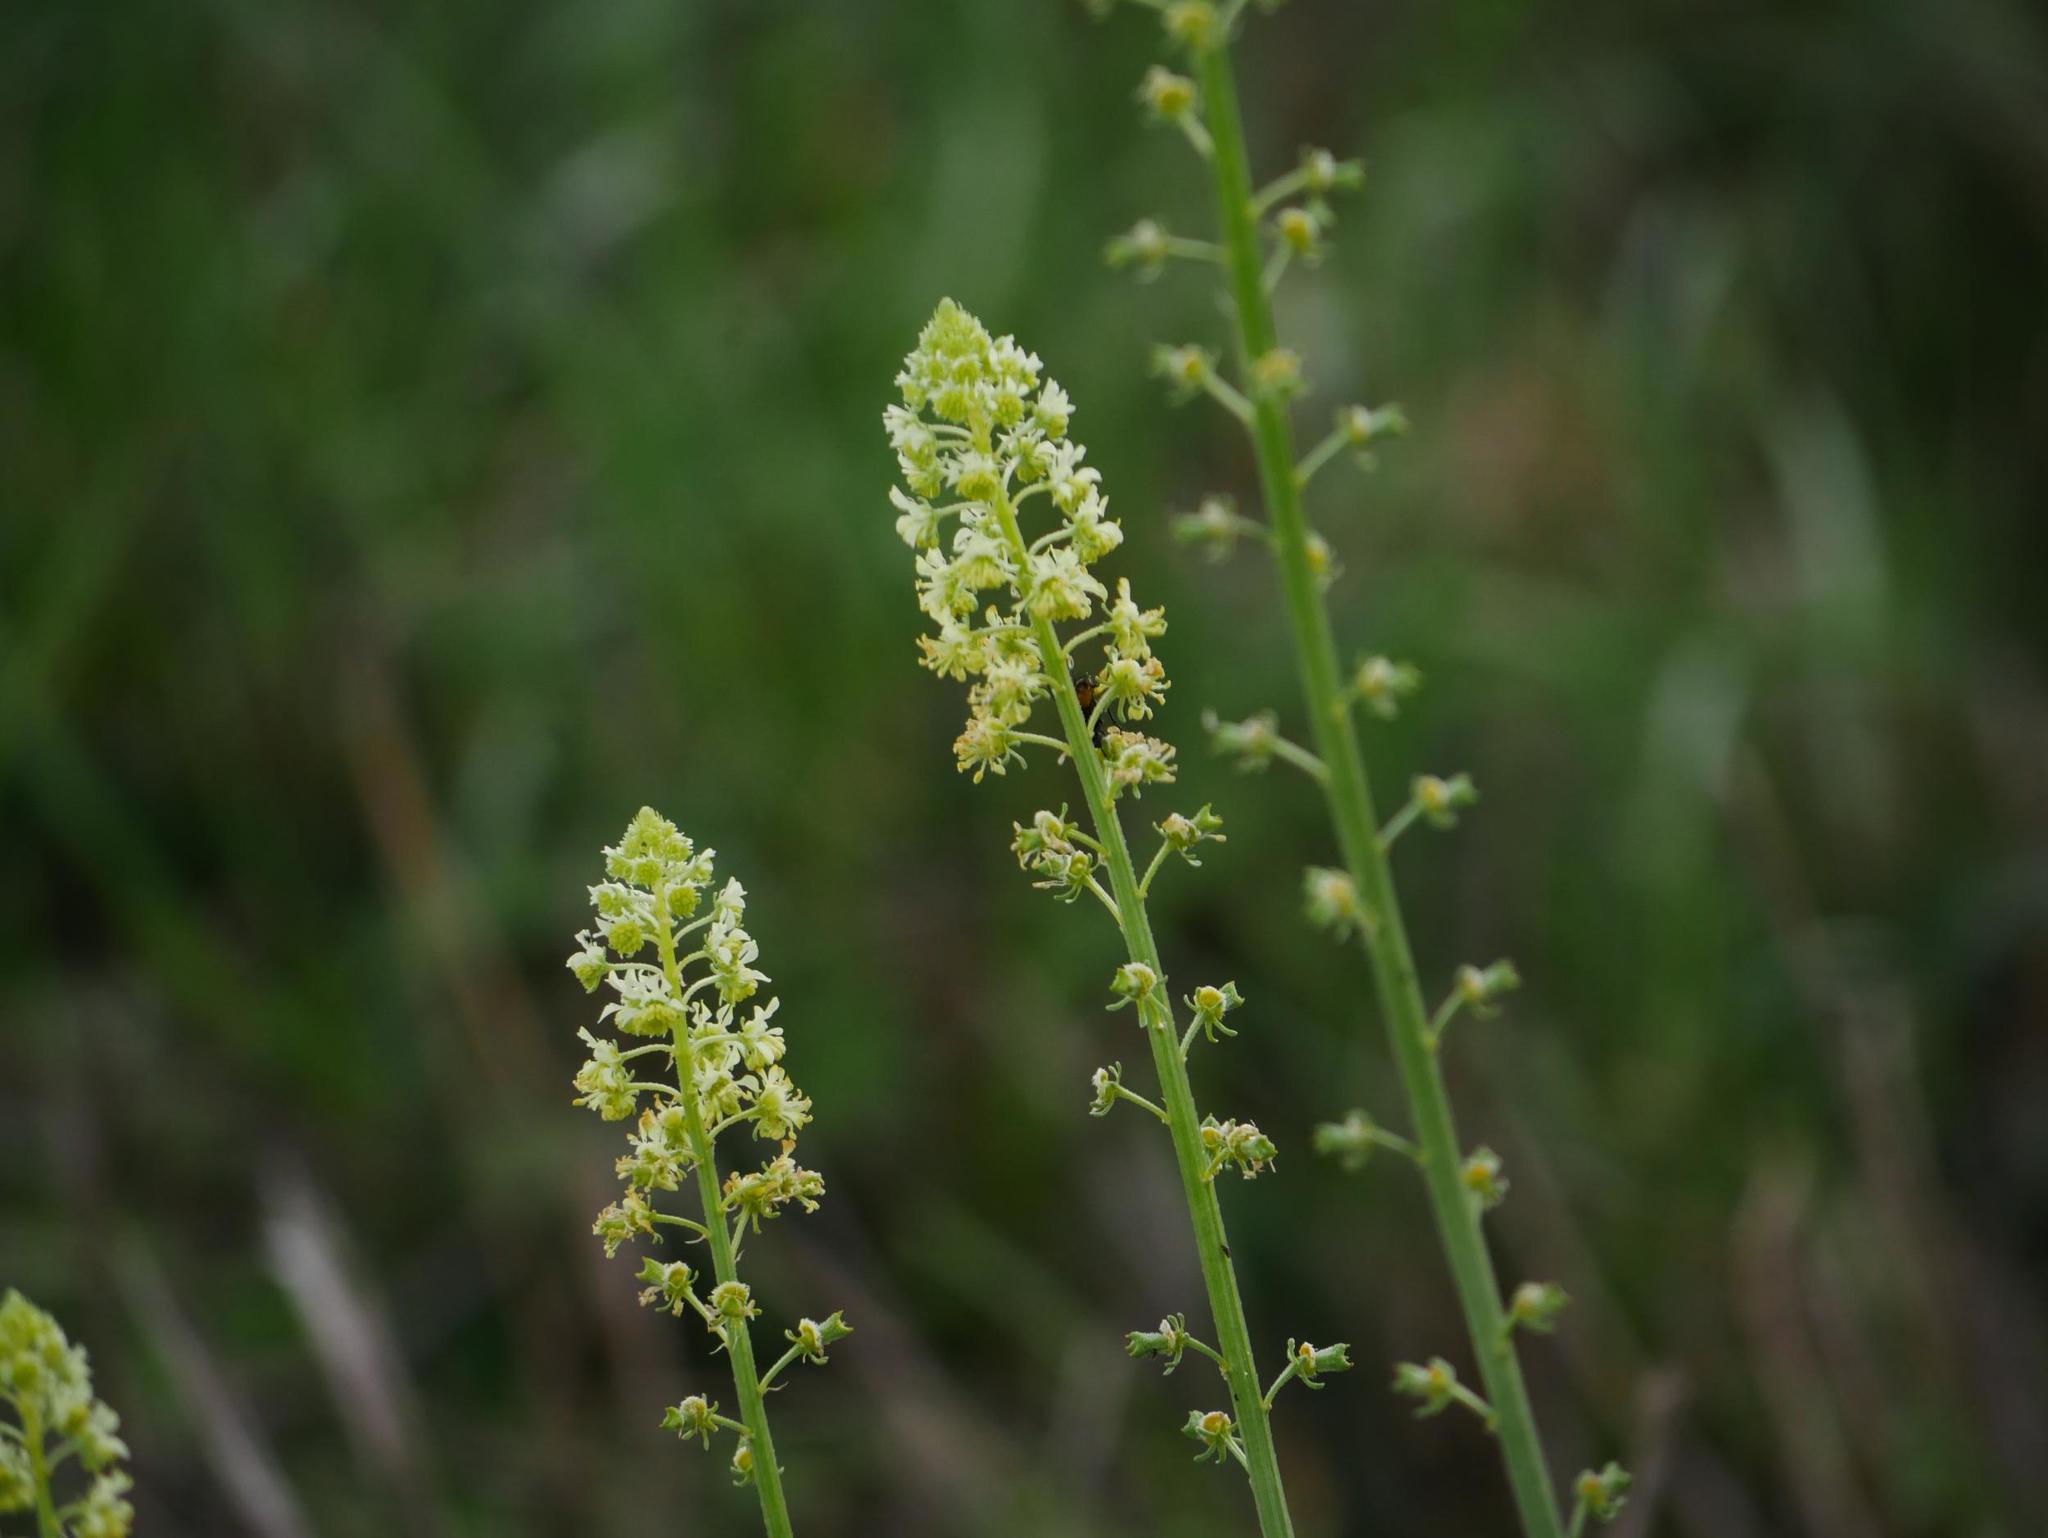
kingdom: Plantae
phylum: Tracheophyta
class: Magnoliopsida
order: Brassicales
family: Resedaceae
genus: Reseda
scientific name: Reseda lutea
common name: Wild mignonette
